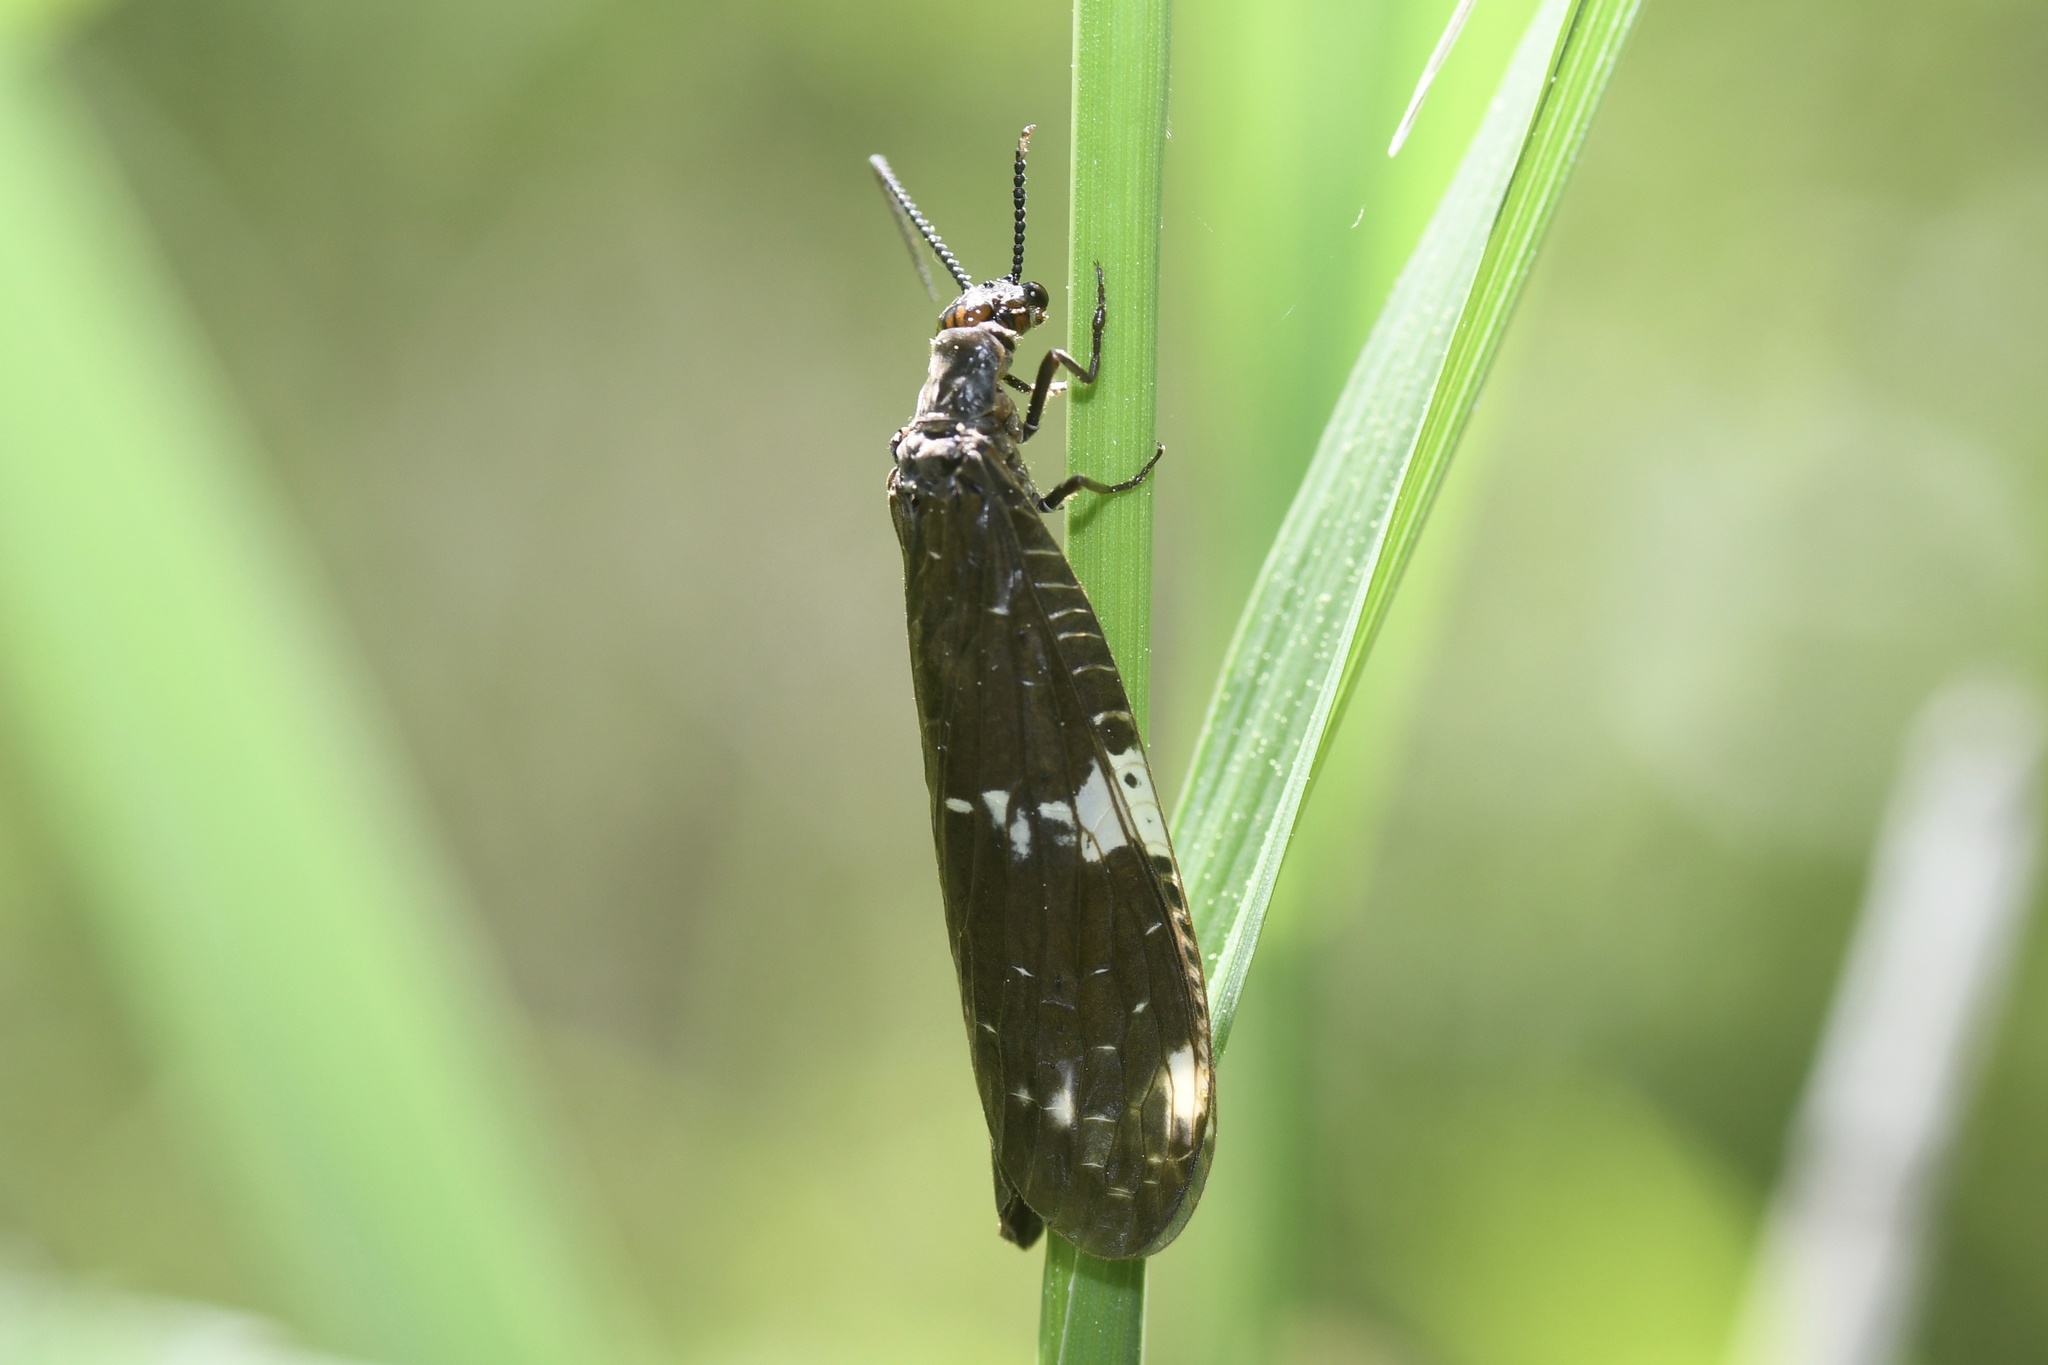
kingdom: Animalia
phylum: Arthropoda
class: Insecta
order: Megaloptera
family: Corydalidae
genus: Nigronia
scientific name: Nigronia serricornis
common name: Serrate dark fishfly
